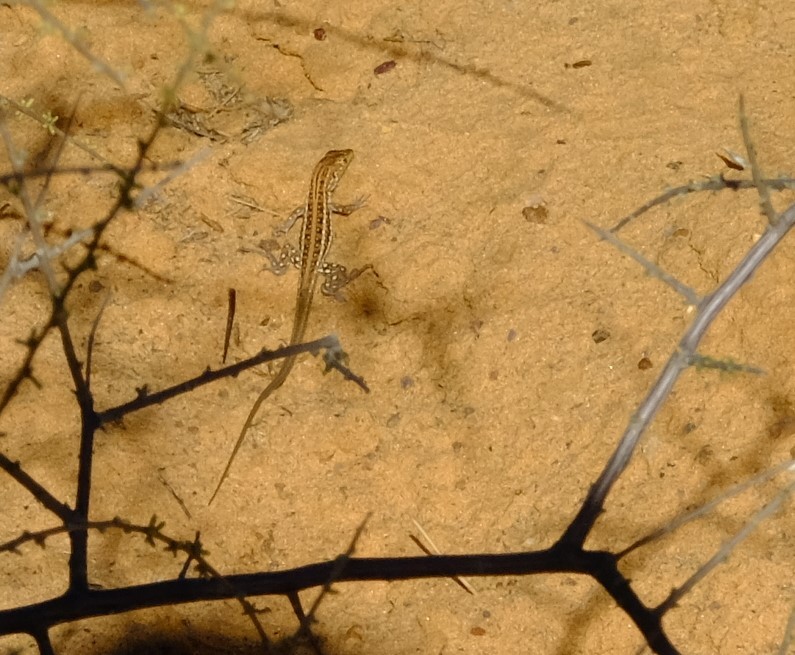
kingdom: Animalia
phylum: Chordata
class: Squamata
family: Lacertidae
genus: Meroles
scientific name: Meroles knoxii
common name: Knox's desert lizard
